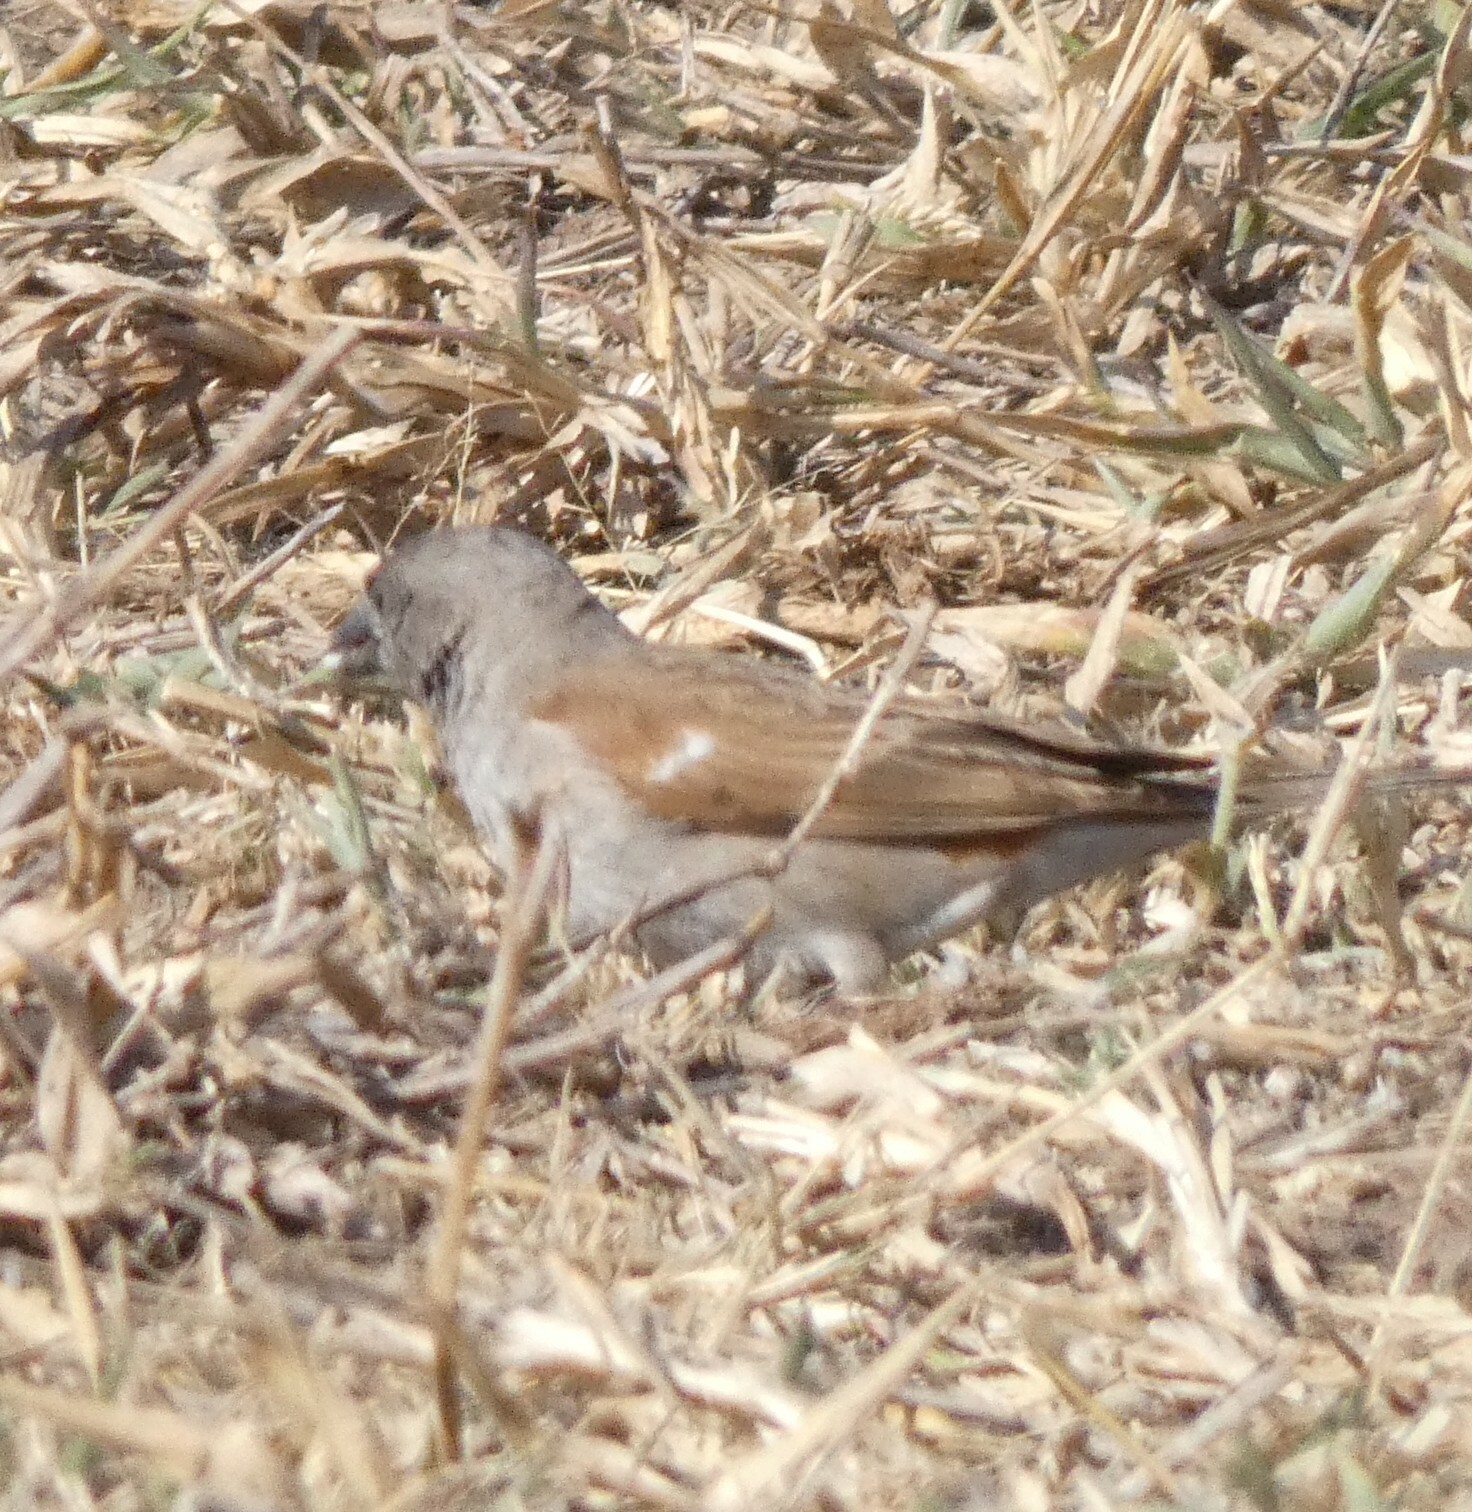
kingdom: Animalia
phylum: Chordata
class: Aves
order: Passeriformes
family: Passeridae
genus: Passer
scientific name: Passer diffusus
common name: Southern grey-headed sparrow
